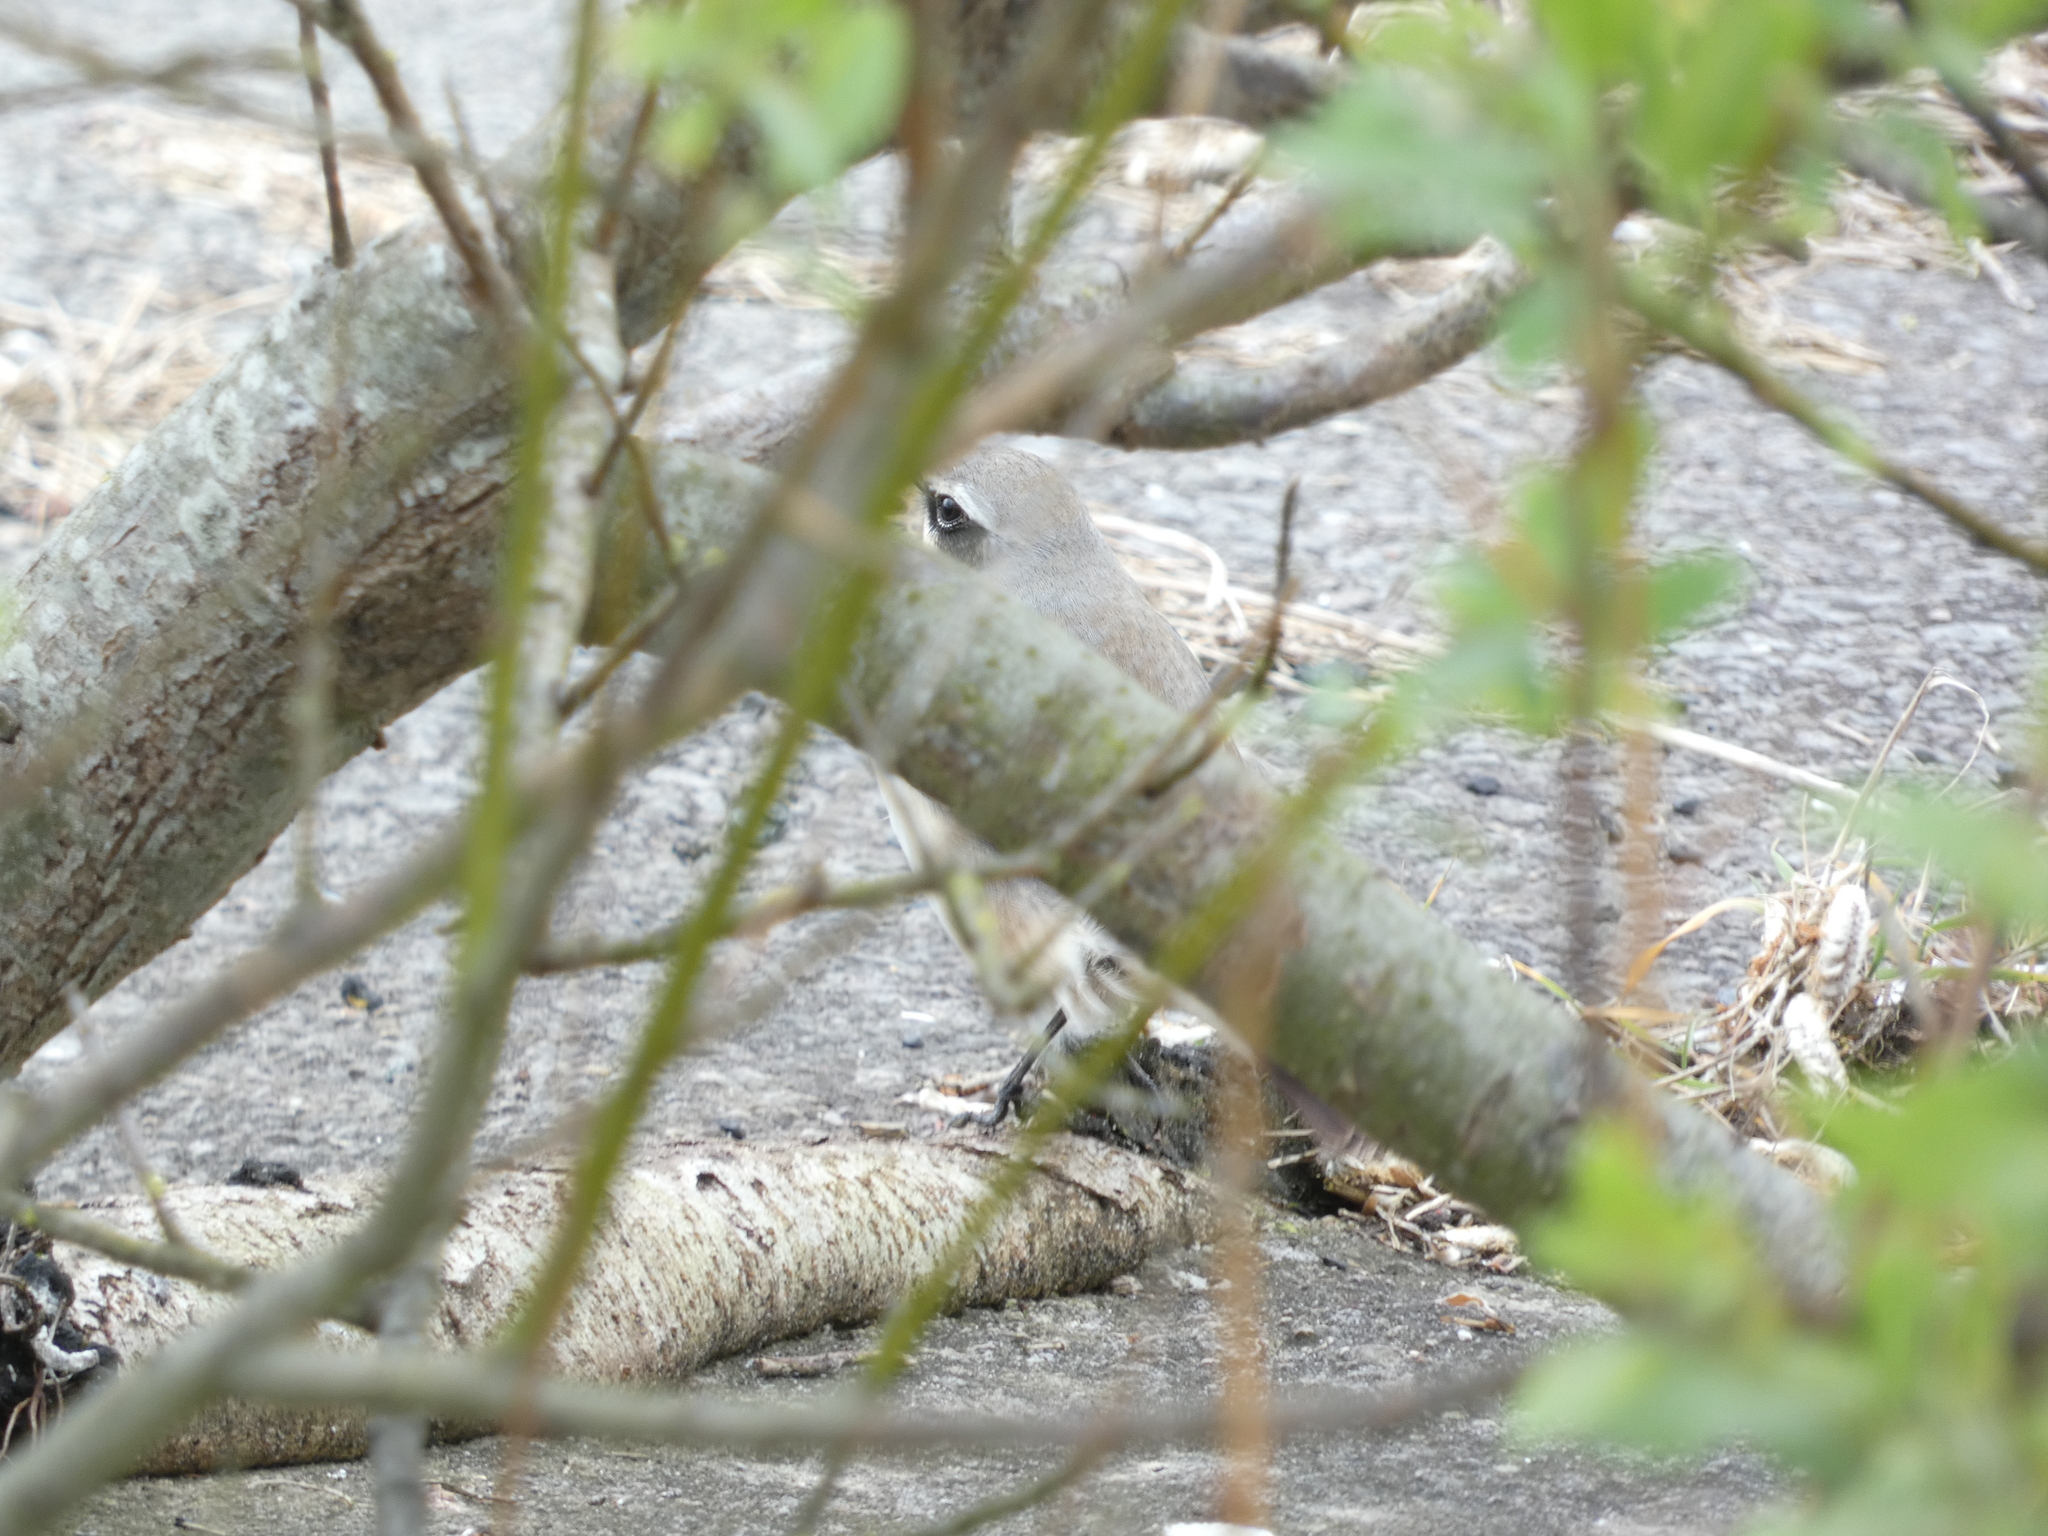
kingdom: Animalia
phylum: Chordata
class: Aves
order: Passeriformes
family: Muscicapidae
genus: Oenanthe
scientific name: Oenanthe oenanthe
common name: Northern wheatear
